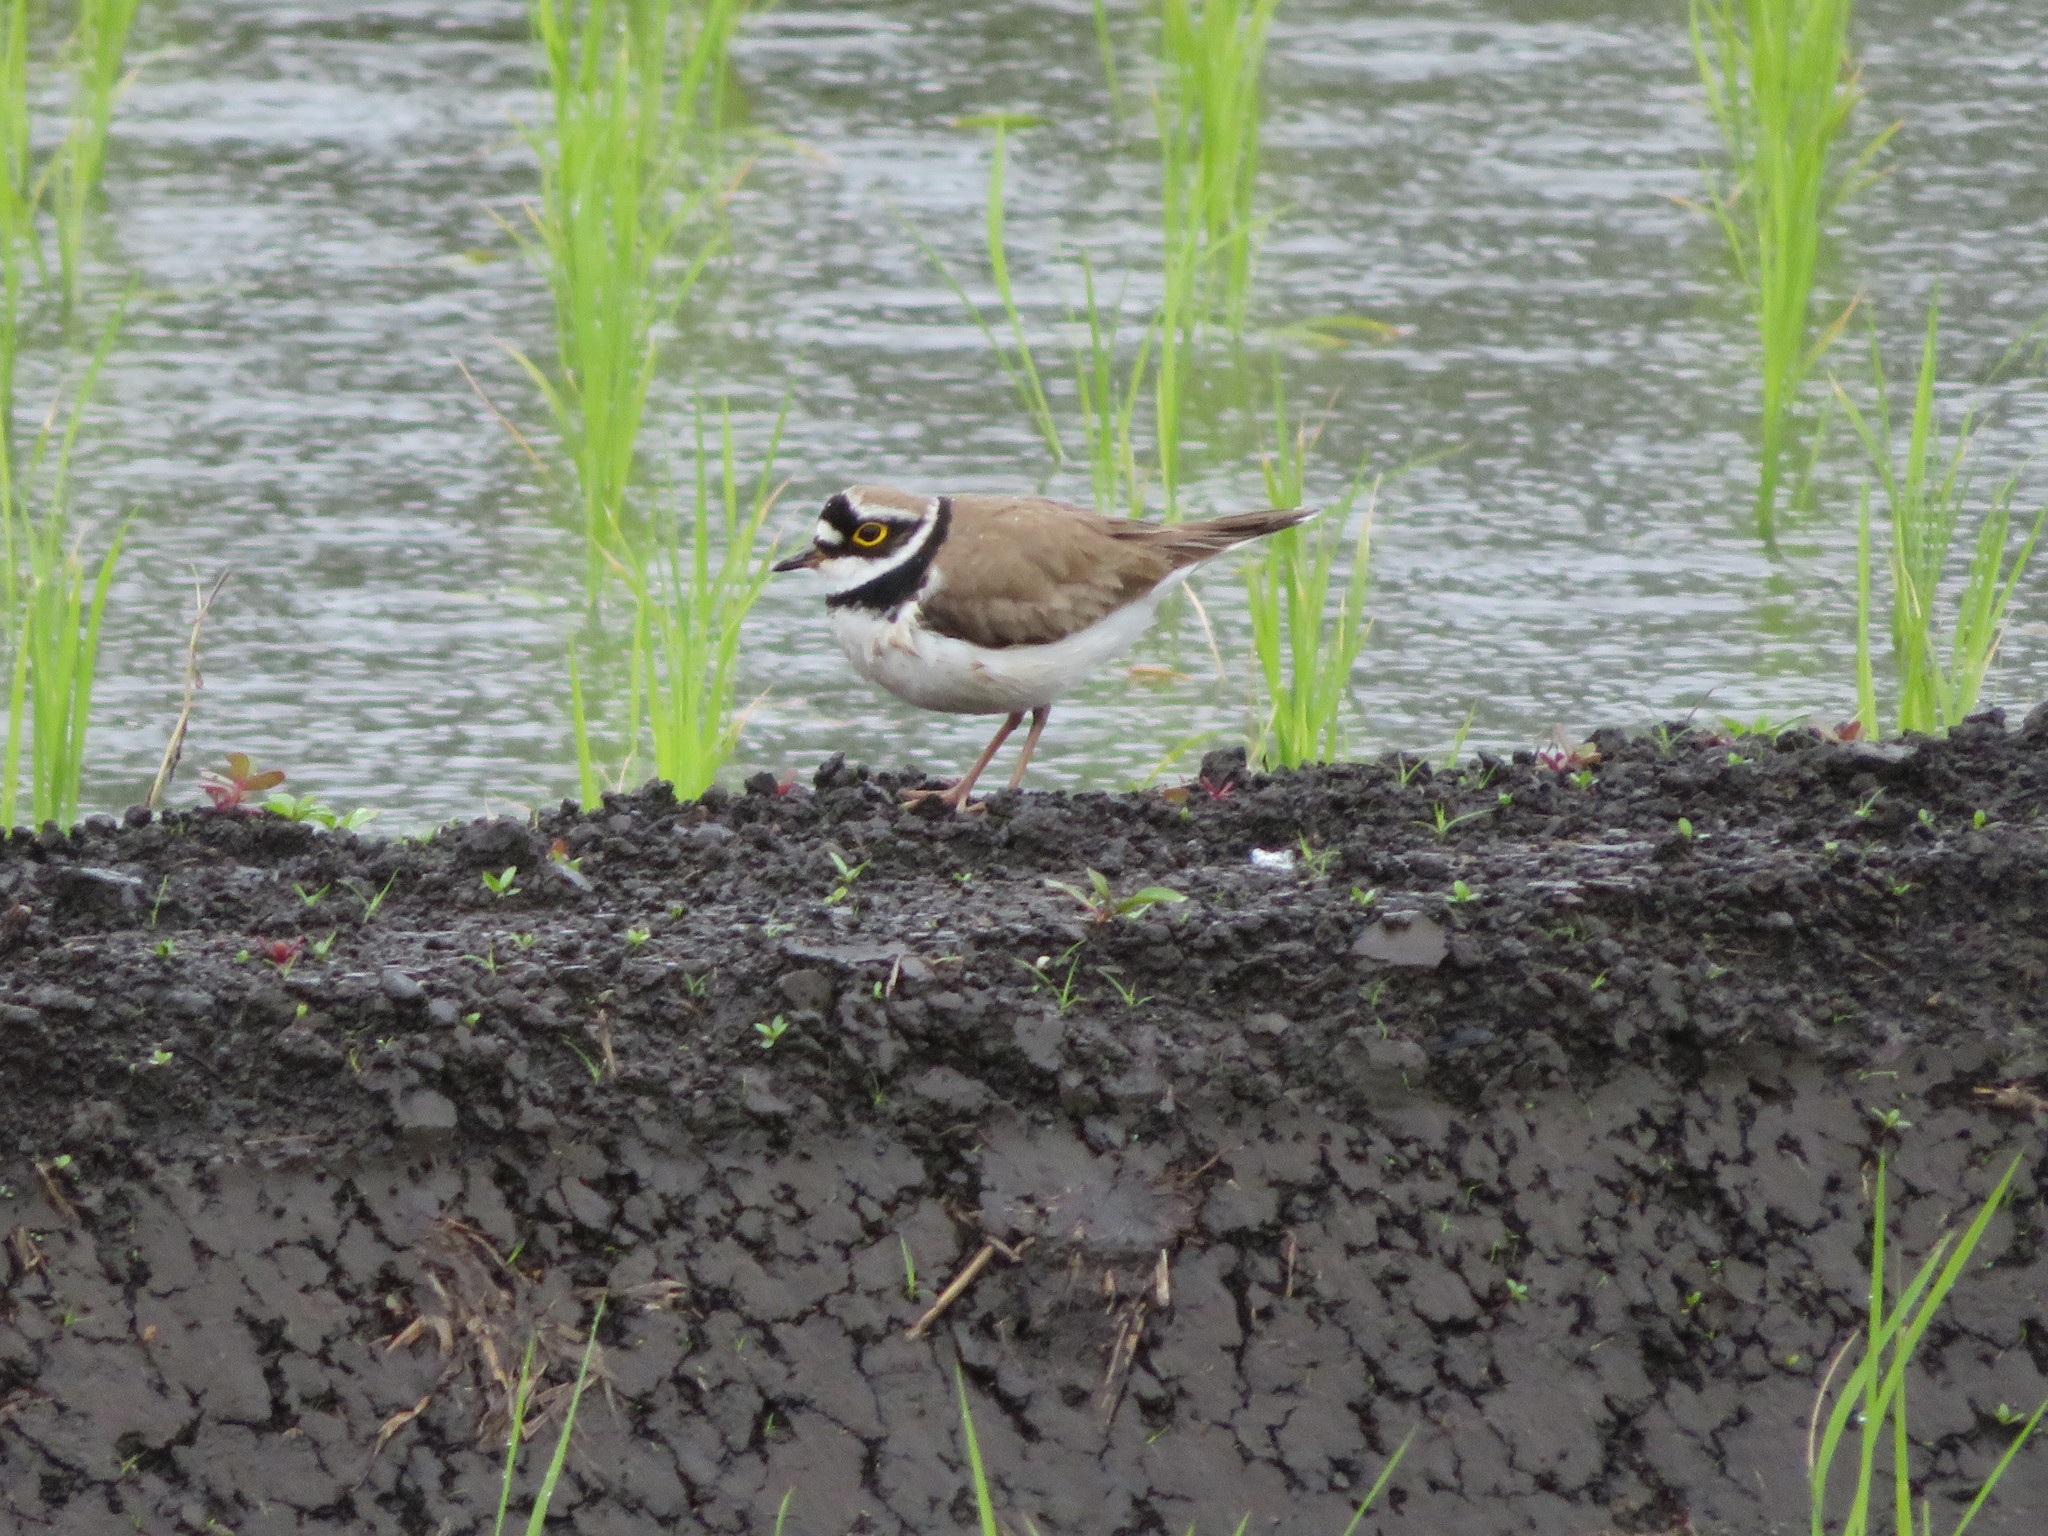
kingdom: Animalia
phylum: Chordata
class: Aves
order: Charadriiformes
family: Charadriidae
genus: Charadrius
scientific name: Charadrius dubius
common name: Little ringed plover
